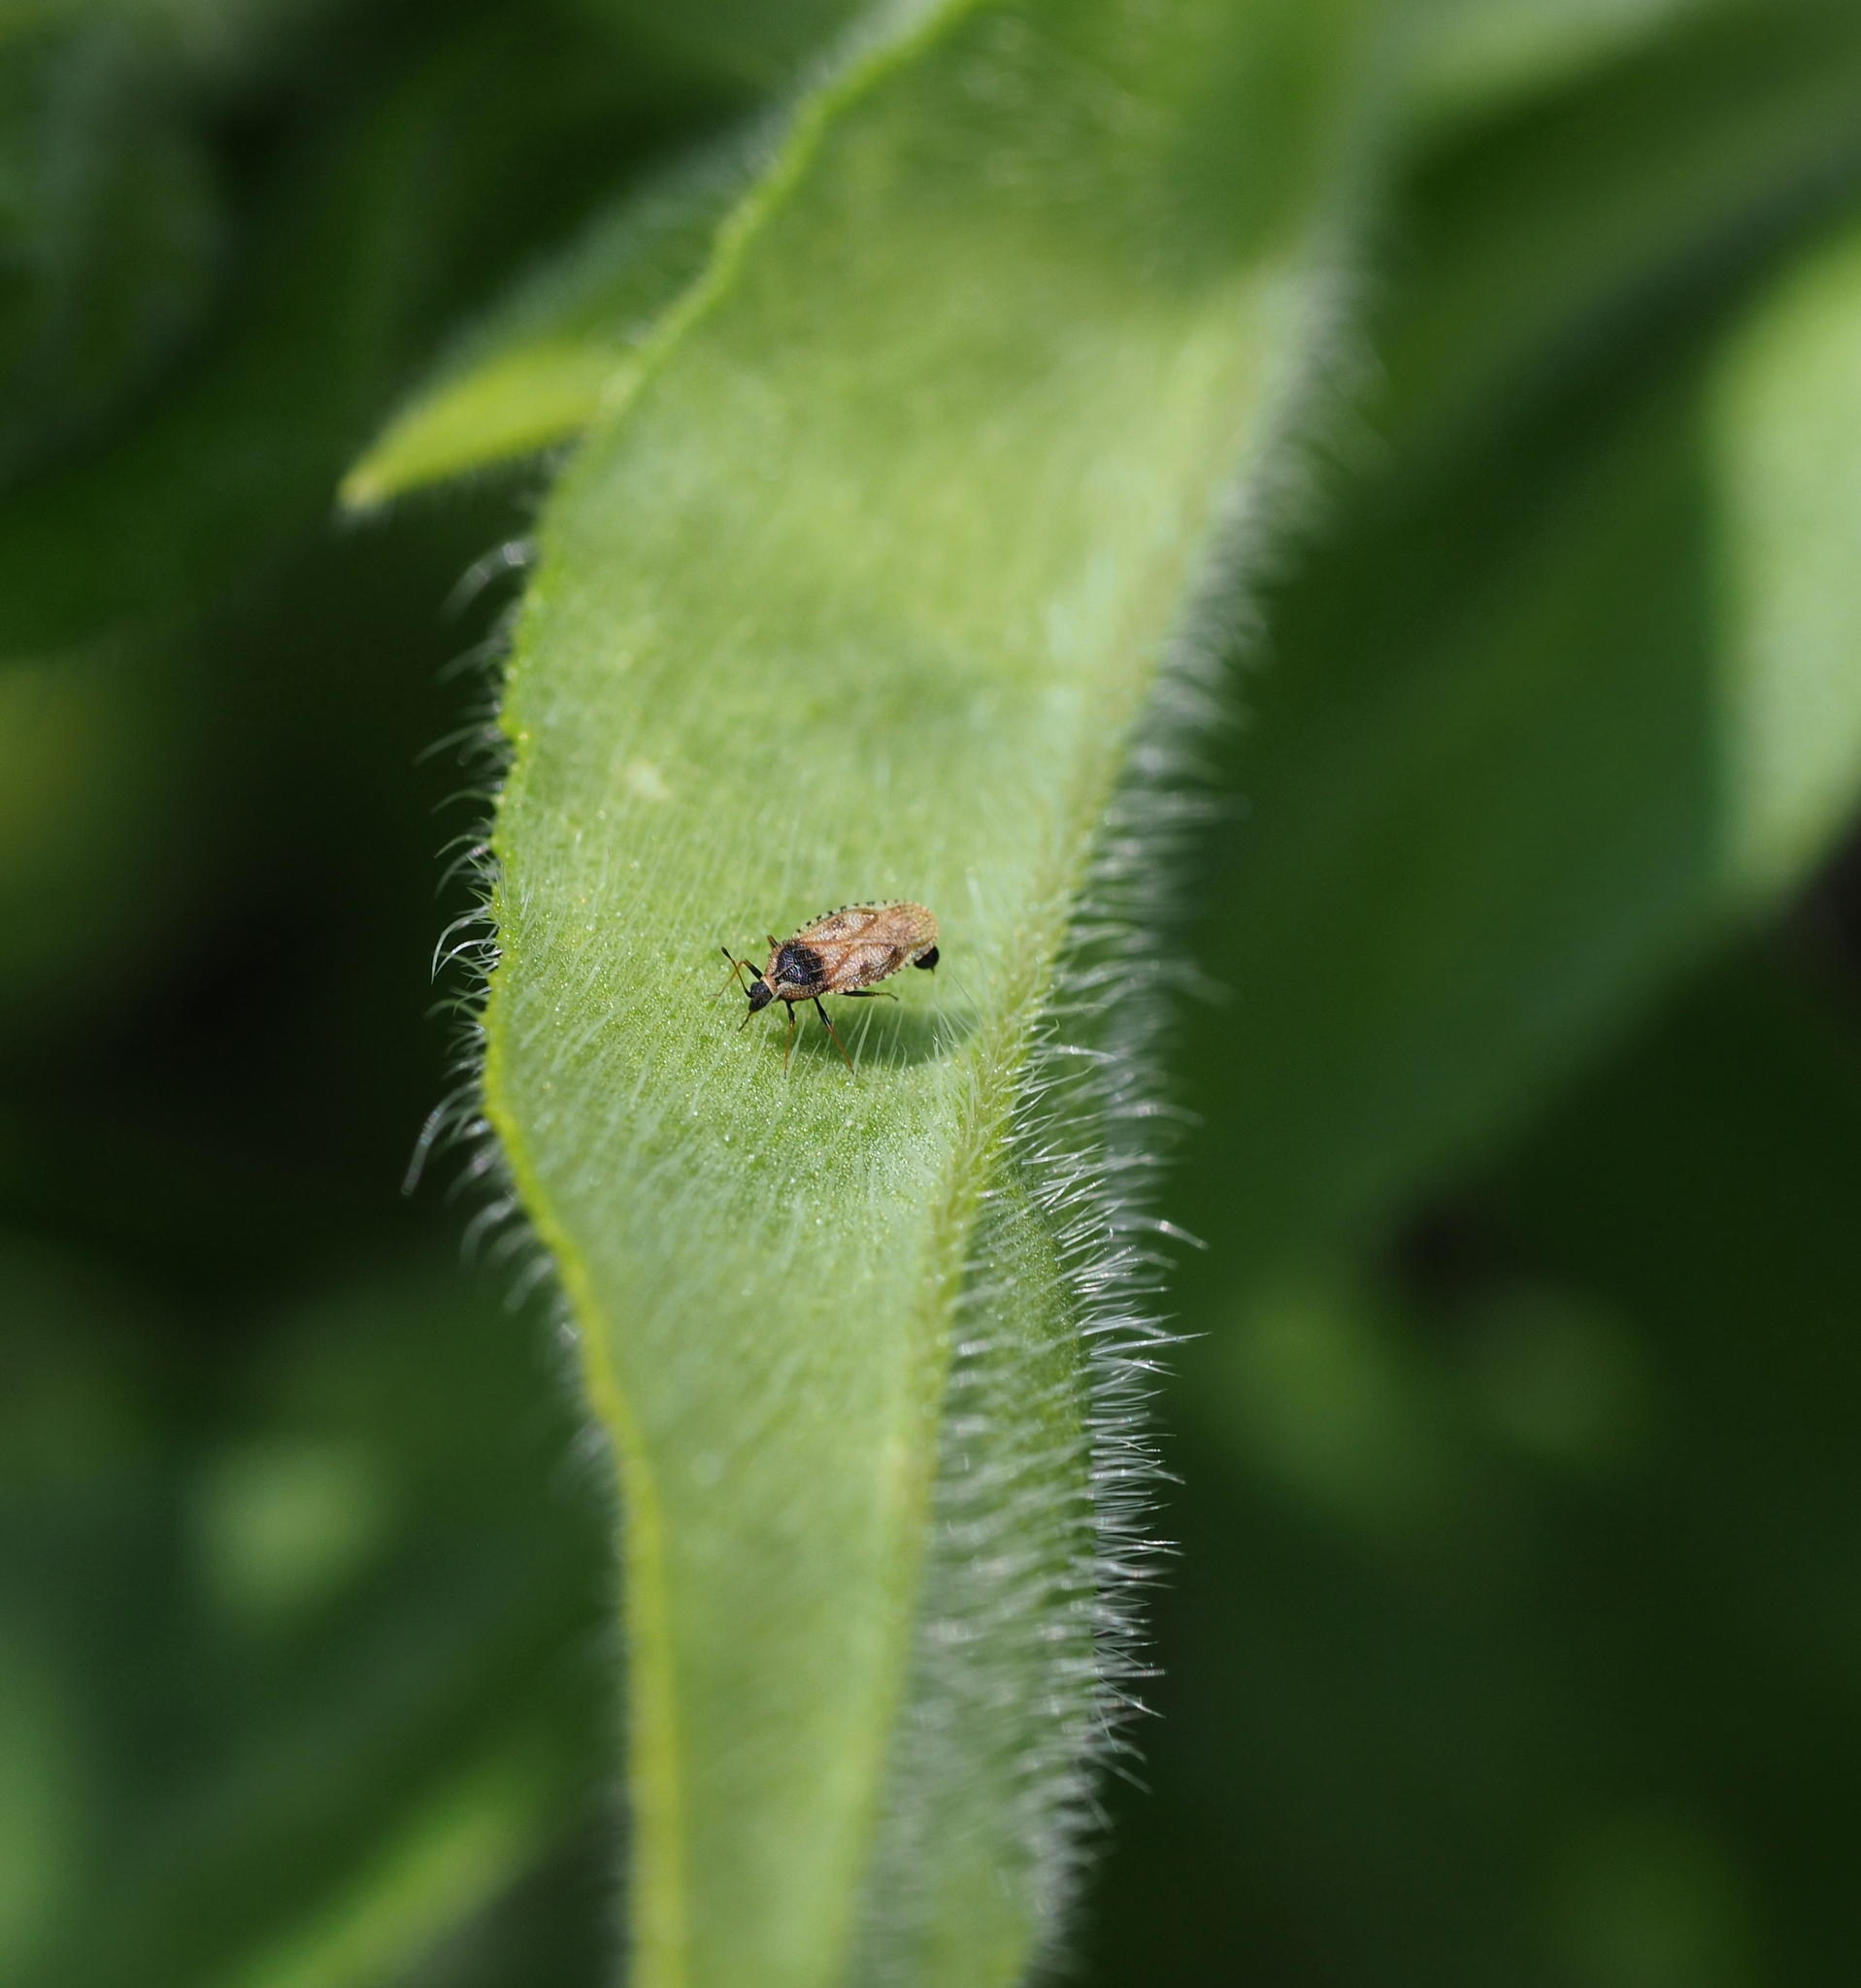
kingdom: Animalia
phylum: Arthropoda
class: Insecta
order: Hemiptera
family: Tingidae
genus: Dictyla
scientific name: Dictyla echii
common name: Lace bug
